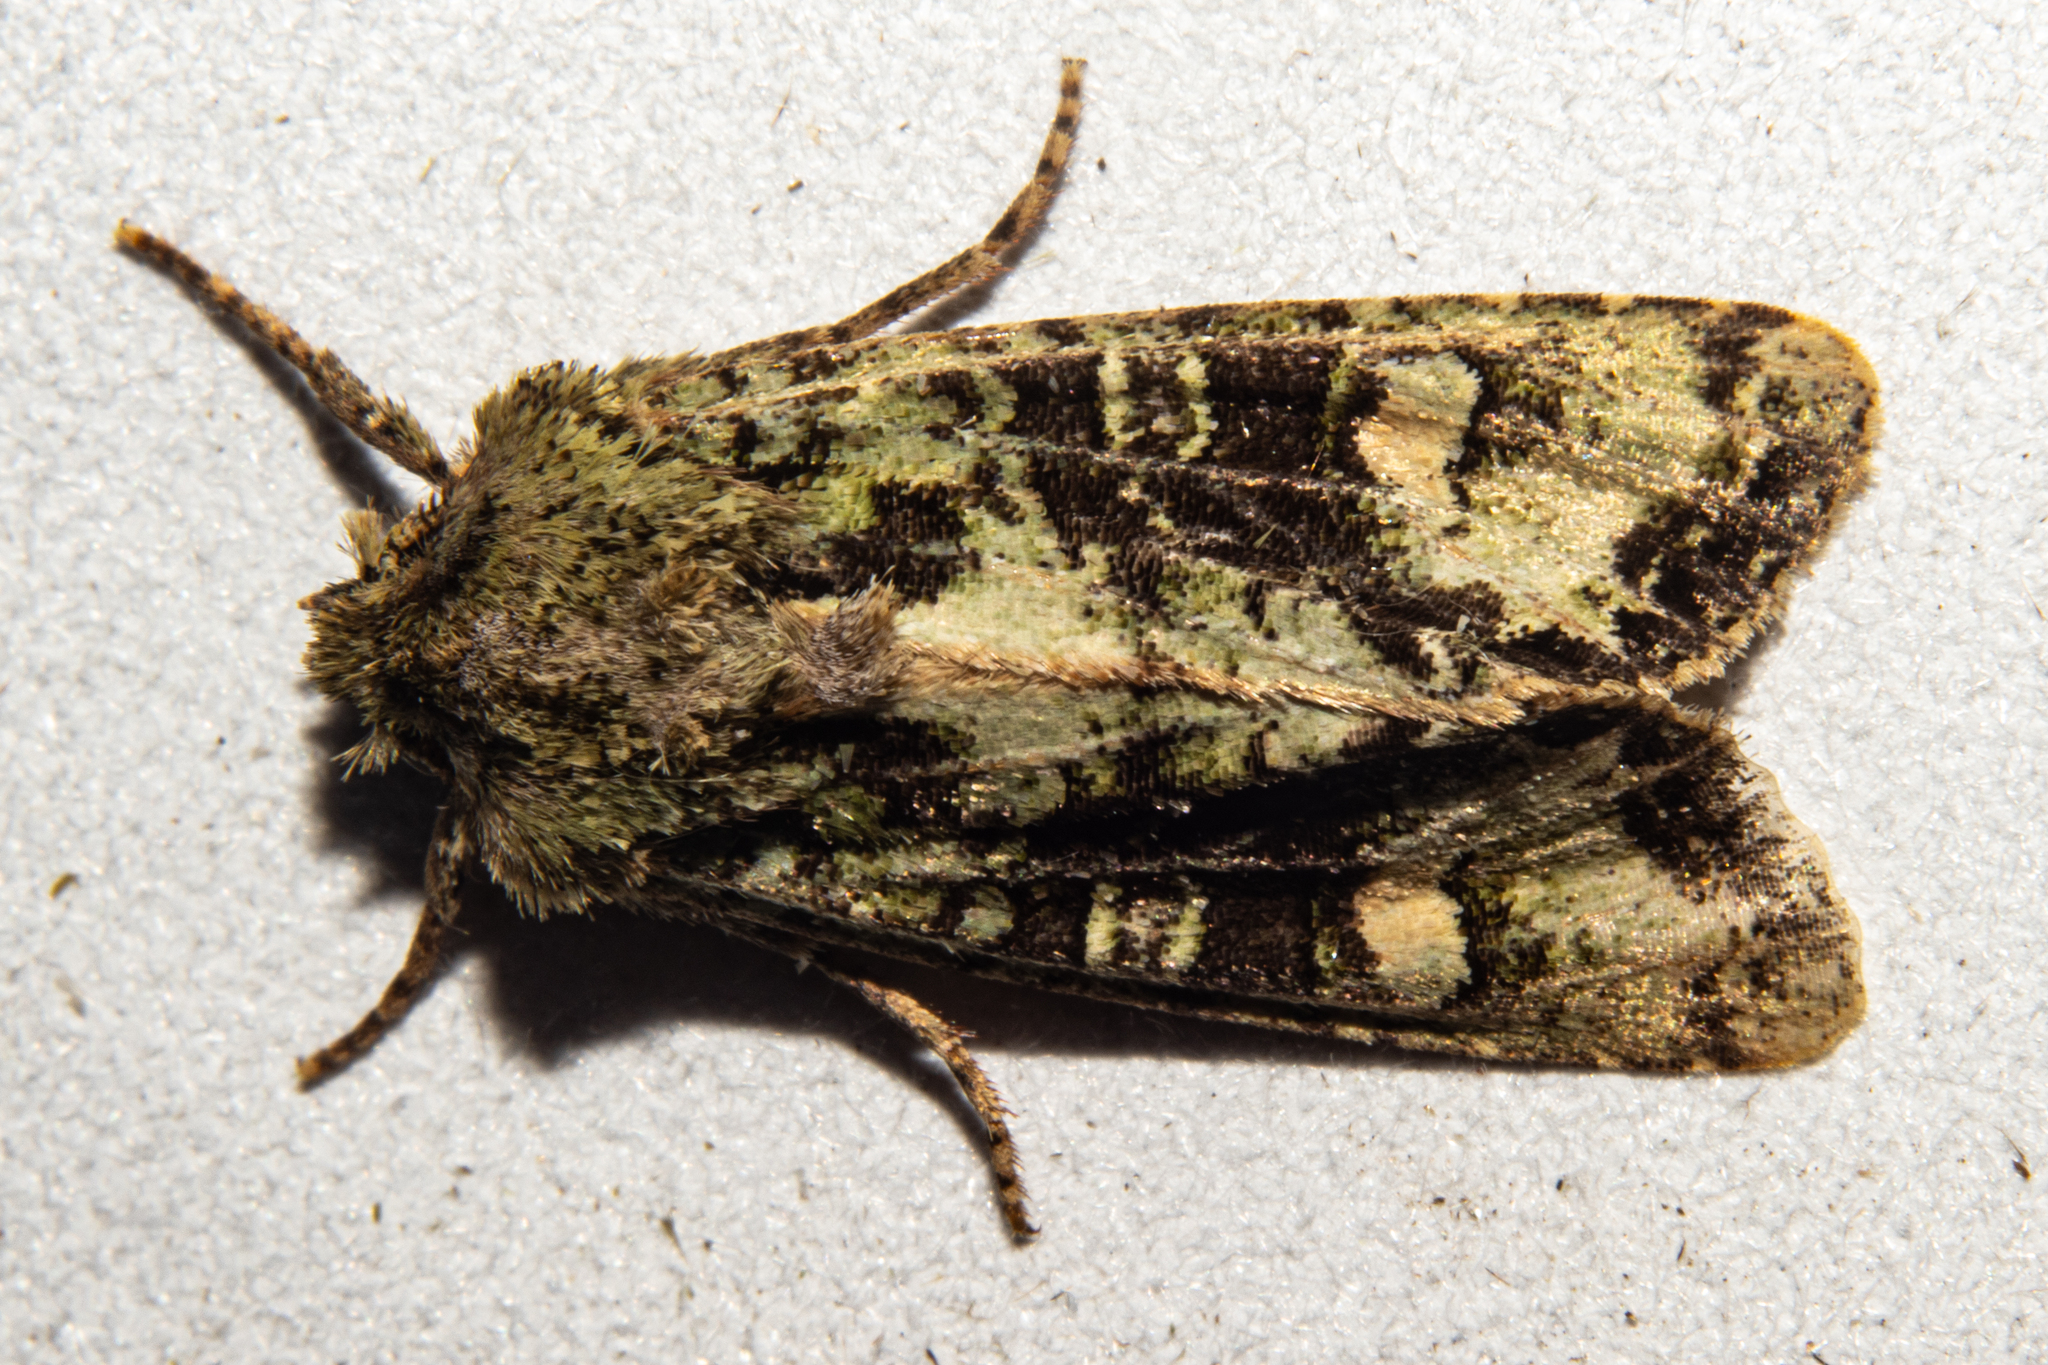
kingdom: Animalia
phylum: Arthropoda
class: Insecta
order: Lepidoptera
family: Noctuidae
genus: Ichneutica
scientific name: Ichneutica
